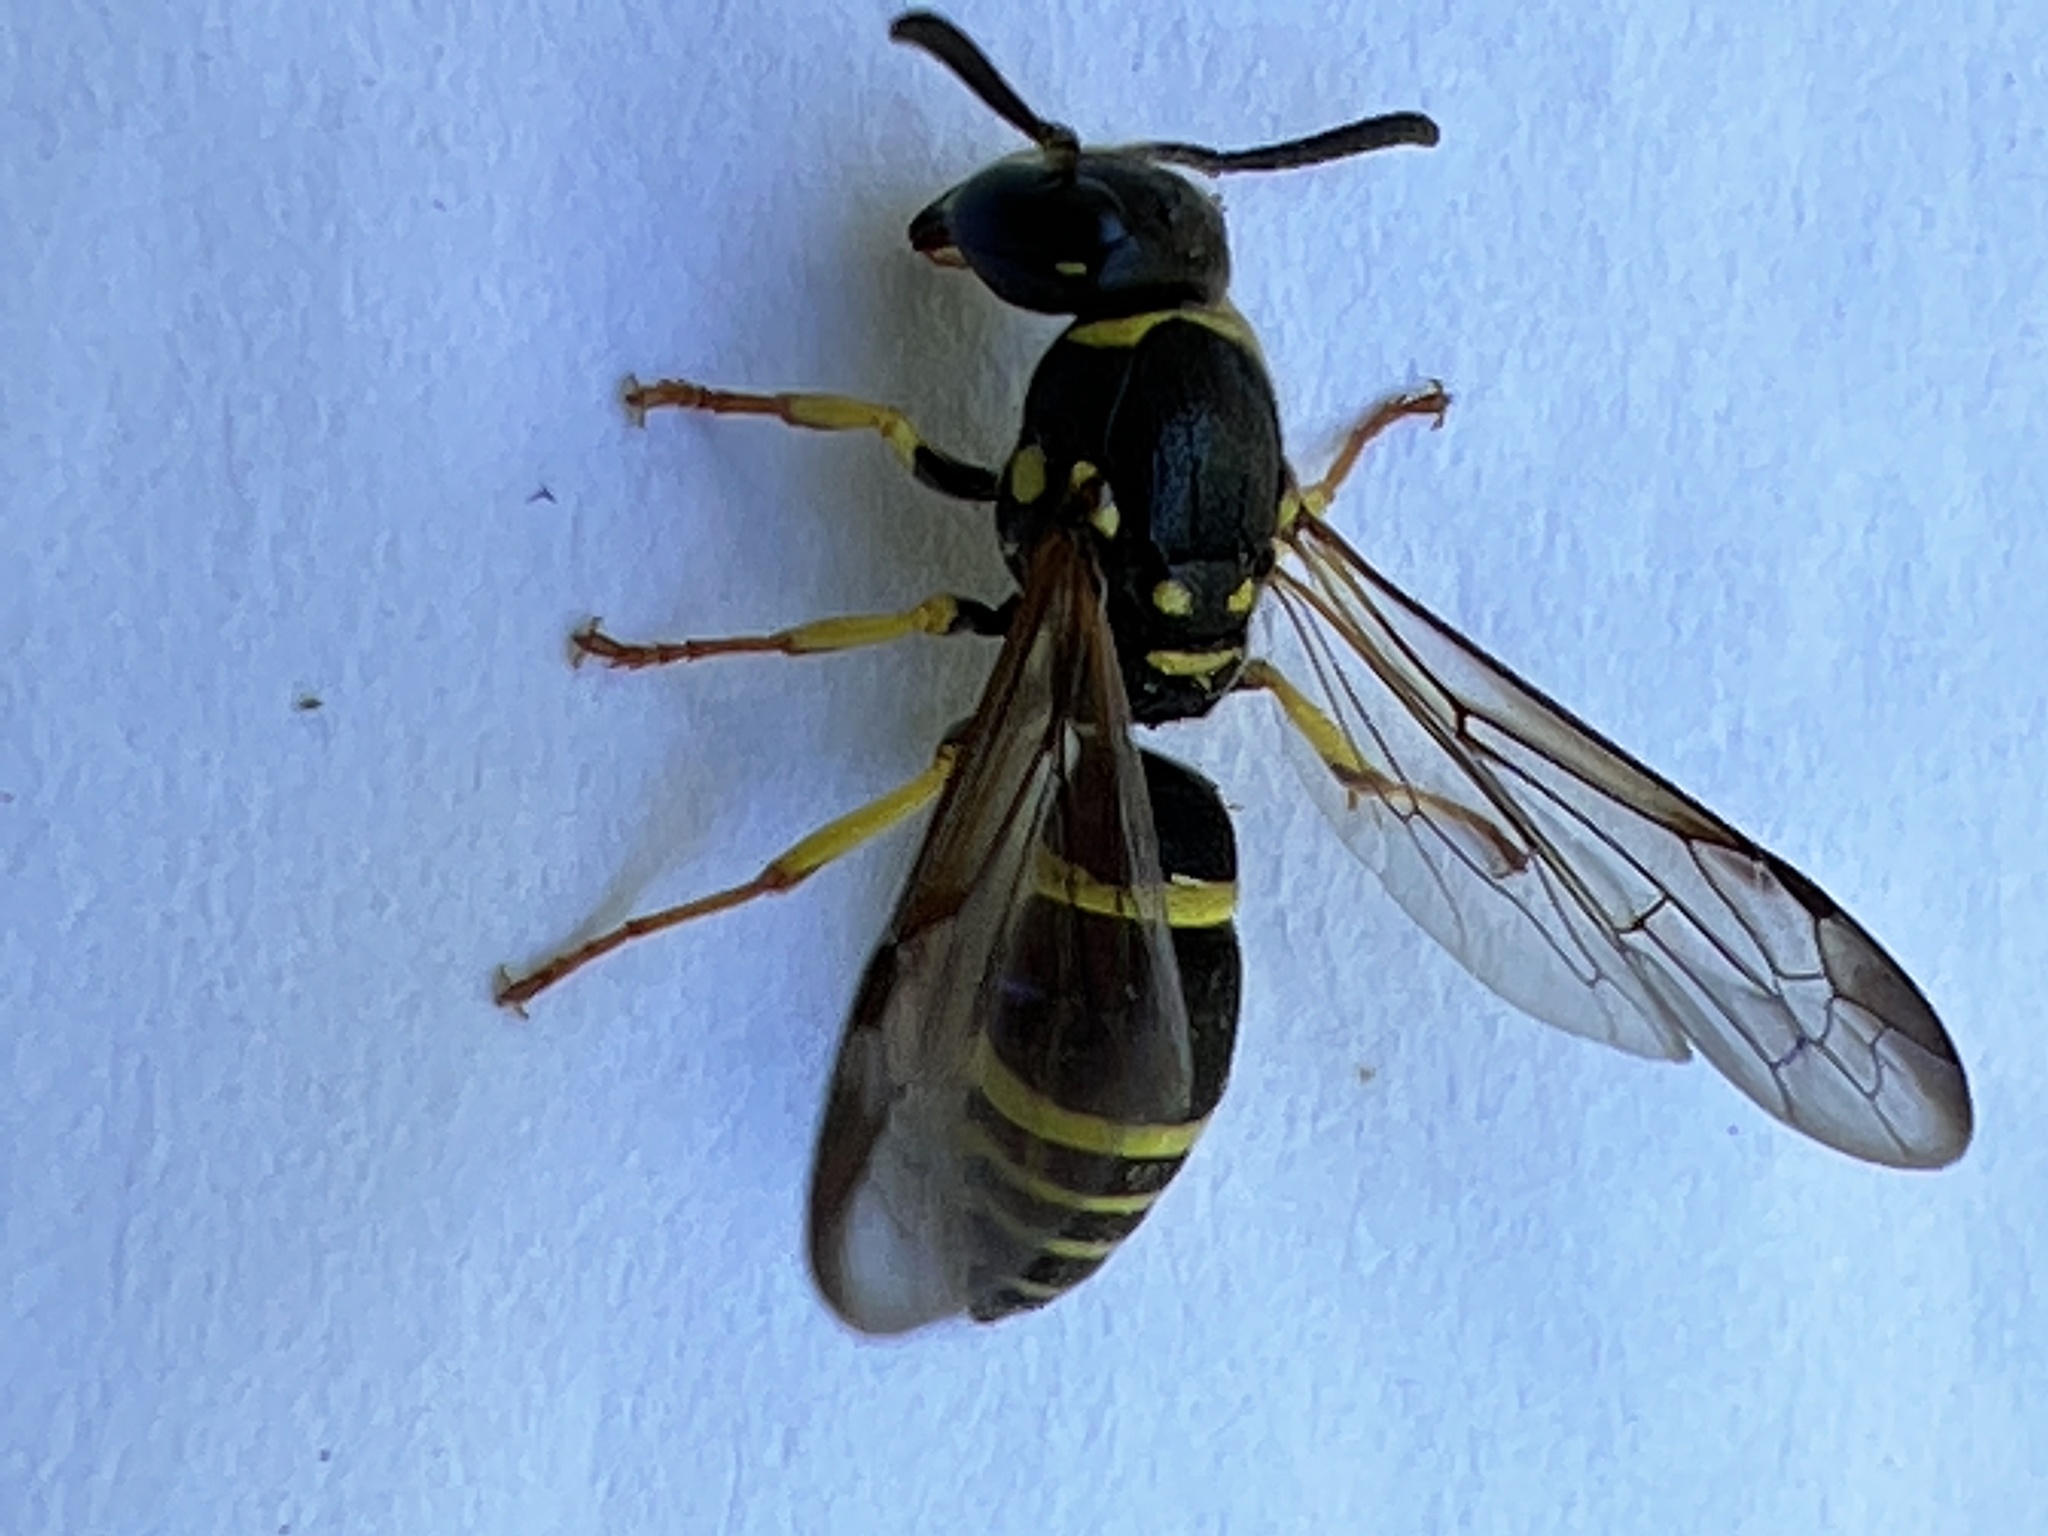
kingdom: Animalia
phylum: Arthropoda
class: Insecta
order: Hymenoptera
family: Vespidae
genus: Ancistrocerus
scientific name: Ancistrocerus adiabatus
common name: Bramble mason wasp
